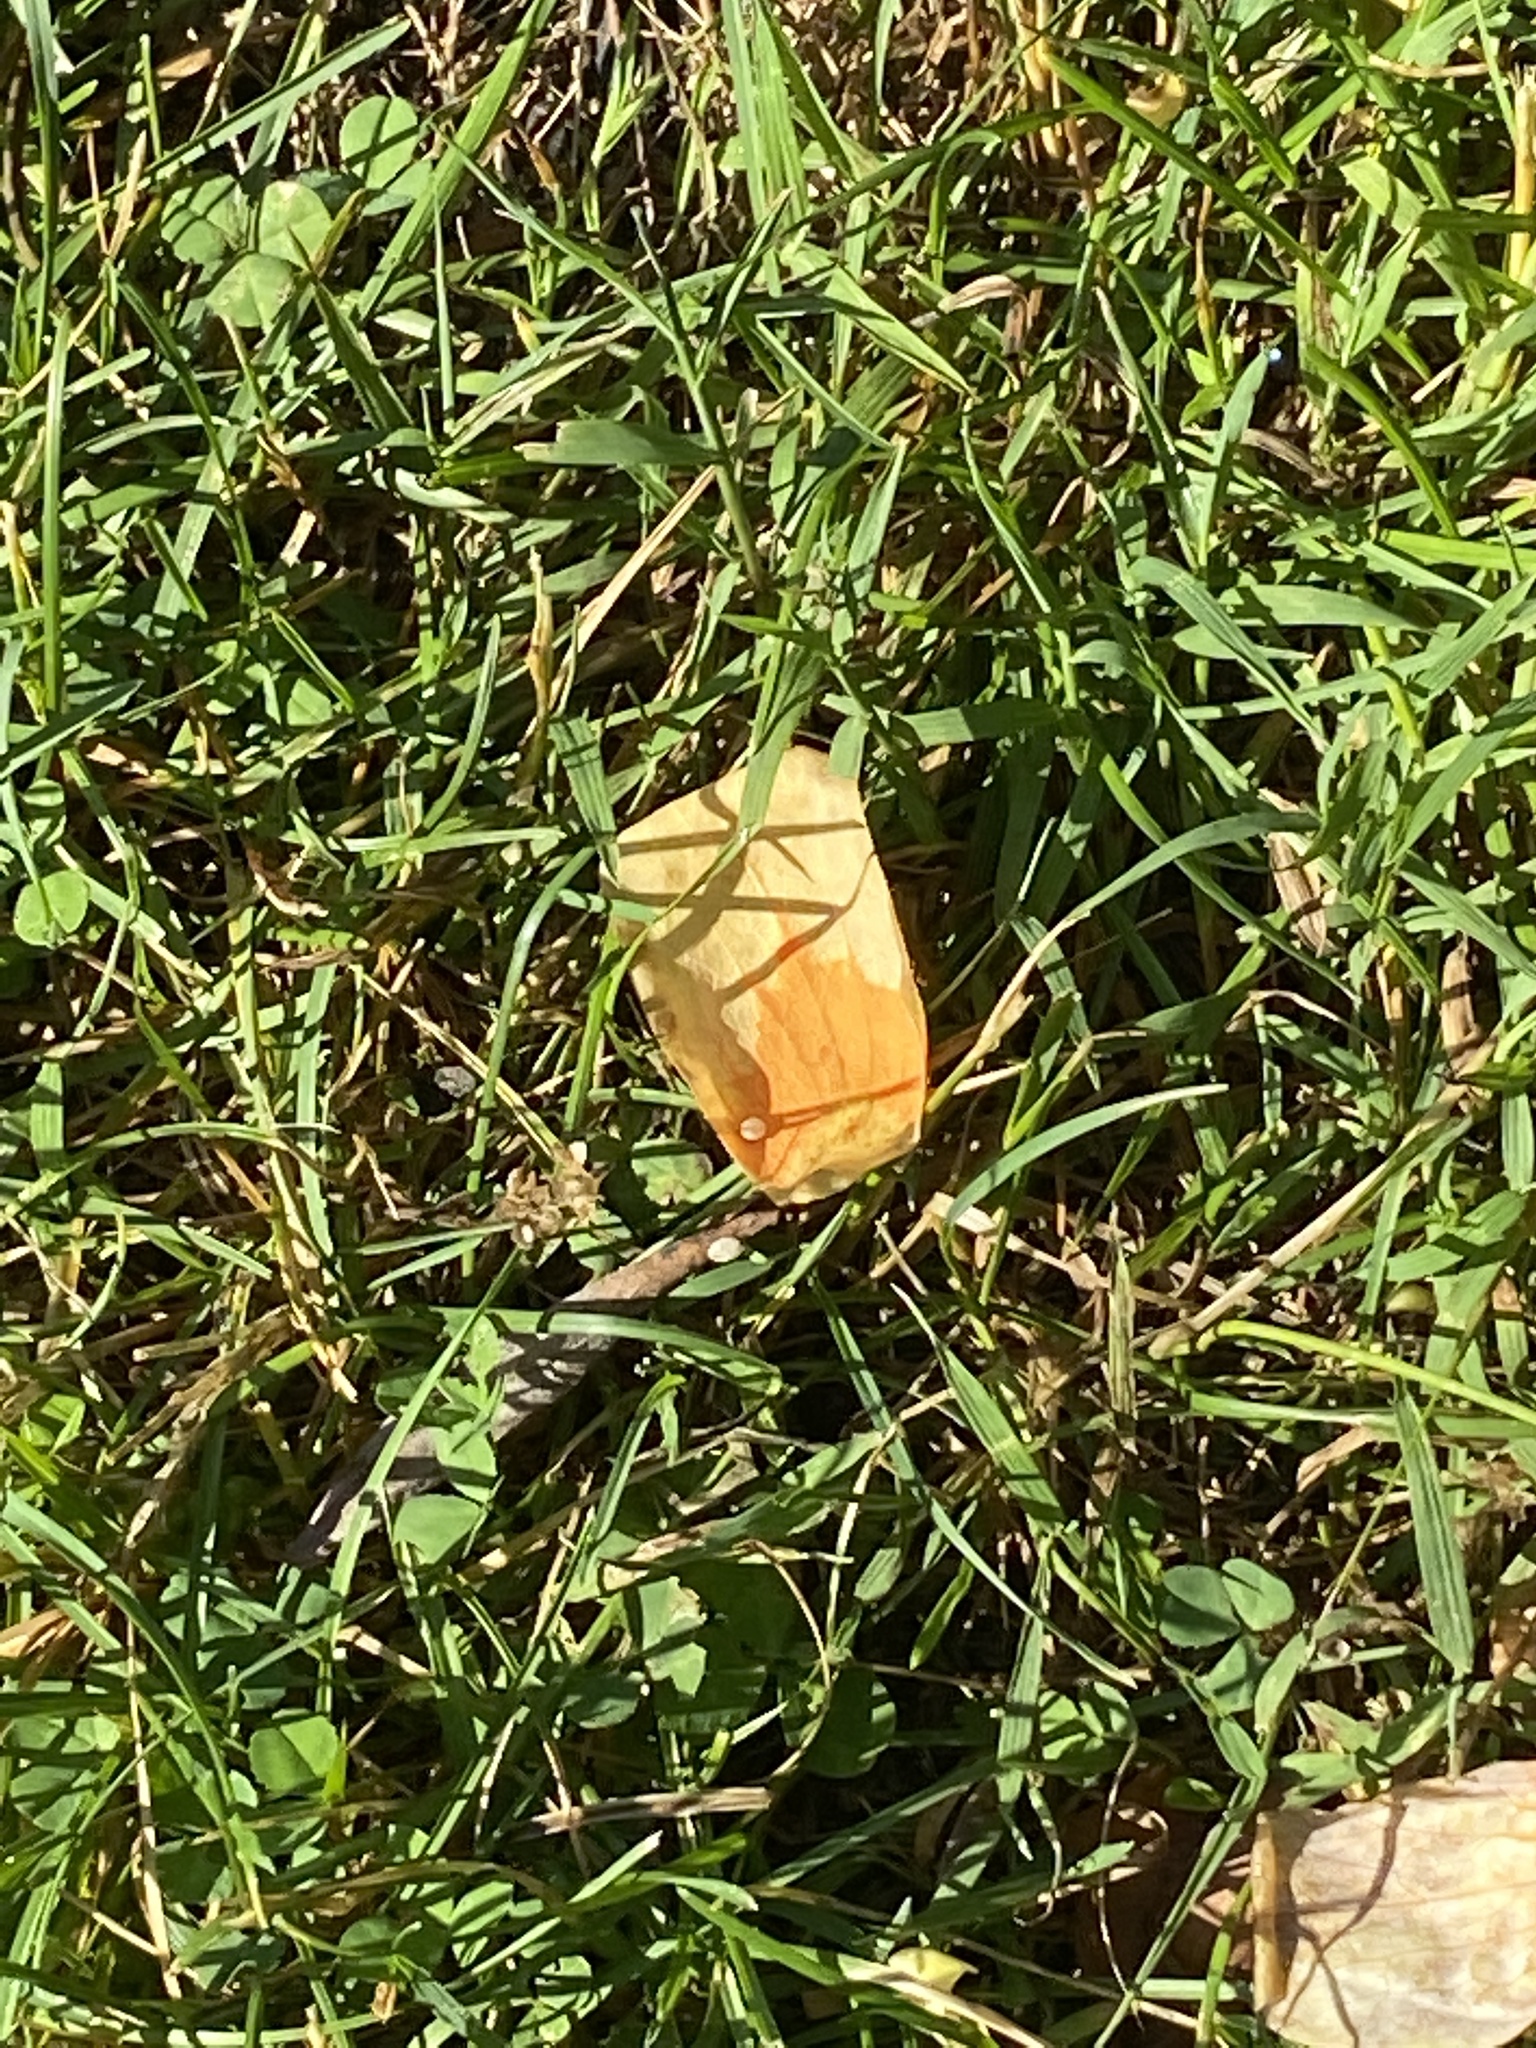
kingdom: Plantae
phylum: Tracheophyta
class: Magnoliopsida
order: Magnoliales
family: Magnoliaceae
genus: Liriodendron
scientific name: Liriodendron tulipifera
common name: Tulip tree
